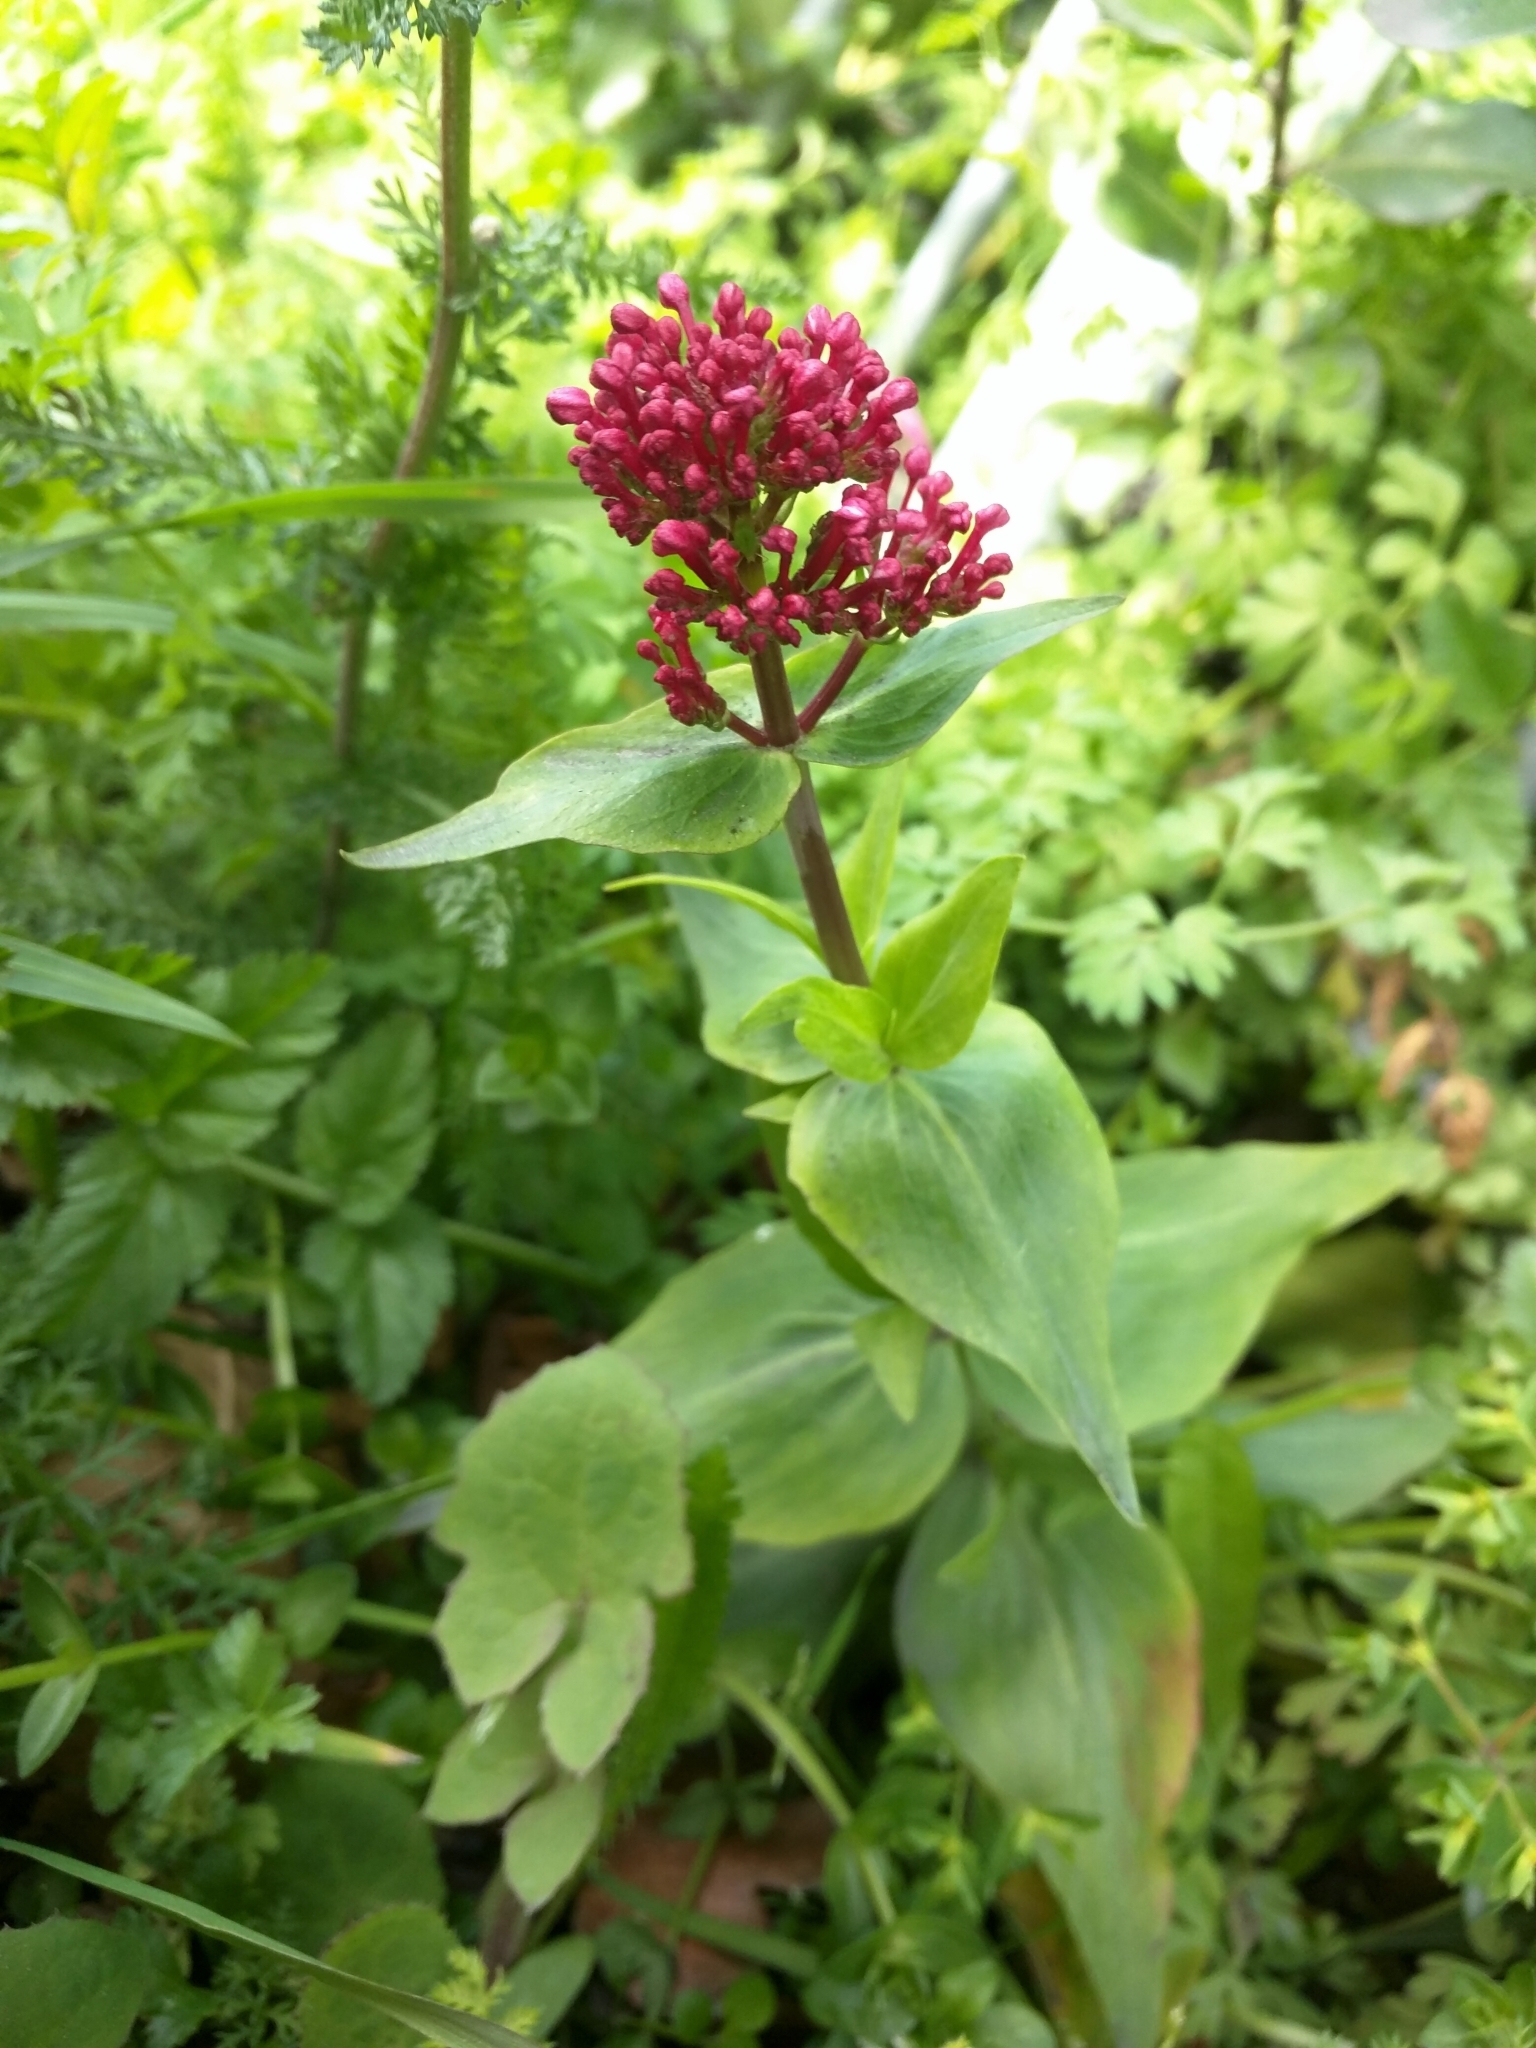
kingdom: Plantae
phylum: Tracheophyta
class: Magnoliopsida
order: Dipsacales
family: Caprifoliaceae
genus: Centranthus
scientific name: Centranthus ruber
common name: Red valerian
